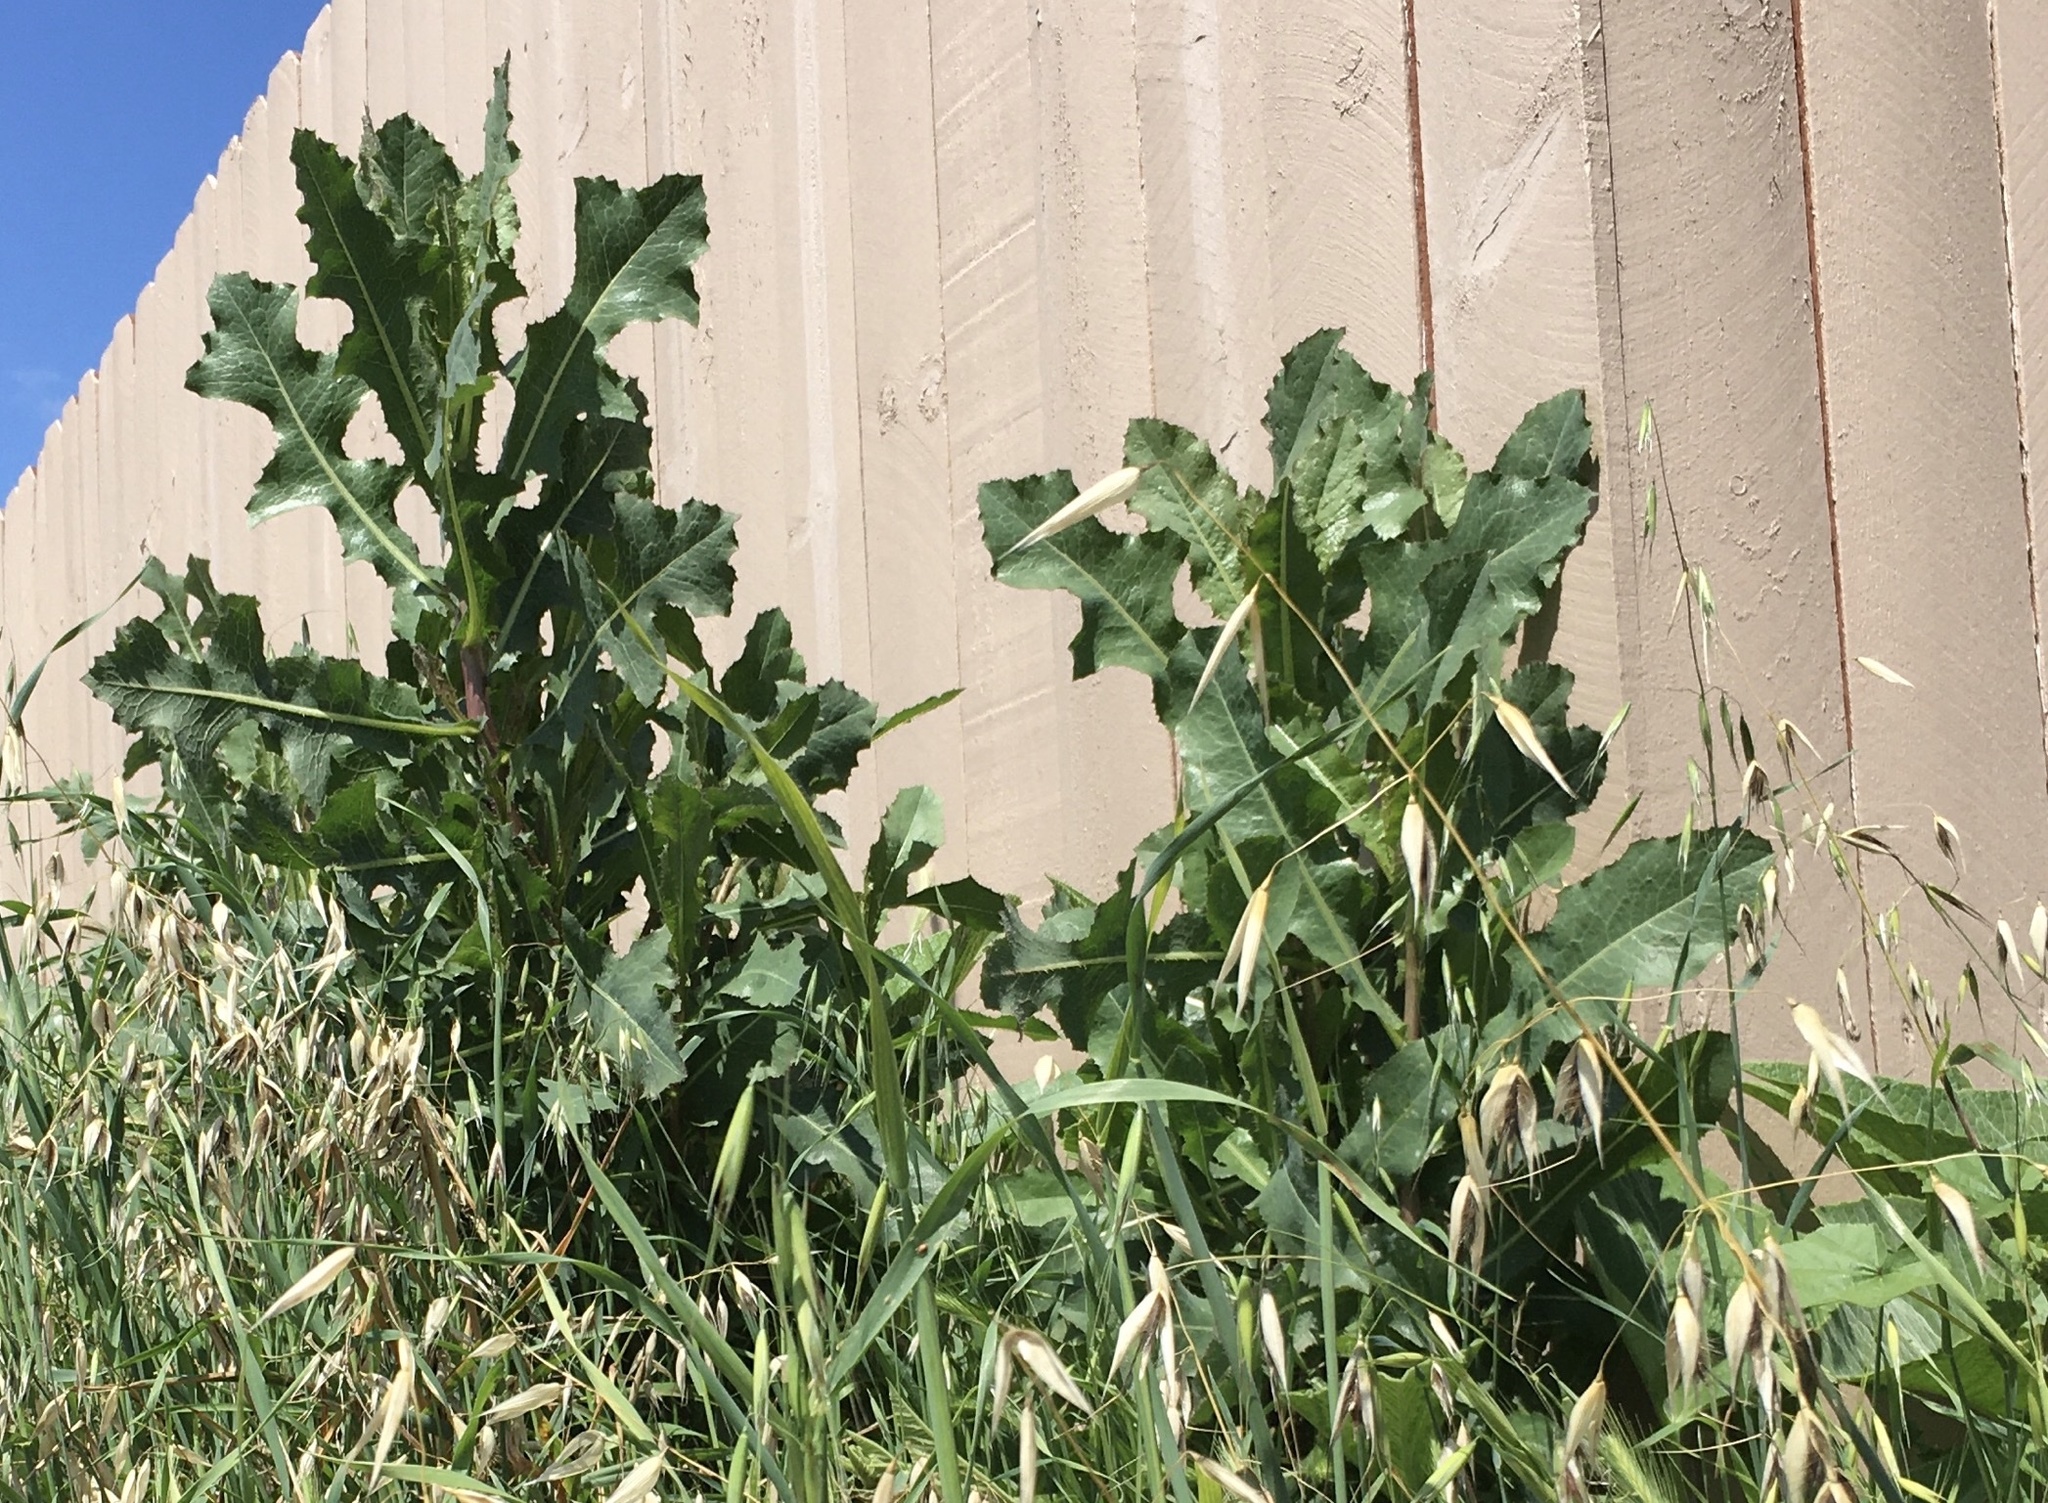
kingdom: Plantae
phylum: Tracheophyta
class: Magnoliopsida
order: Asterales
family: Asteraceae
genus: Lactuca
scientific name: Lactuca serriola
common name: Prickly lettuce
